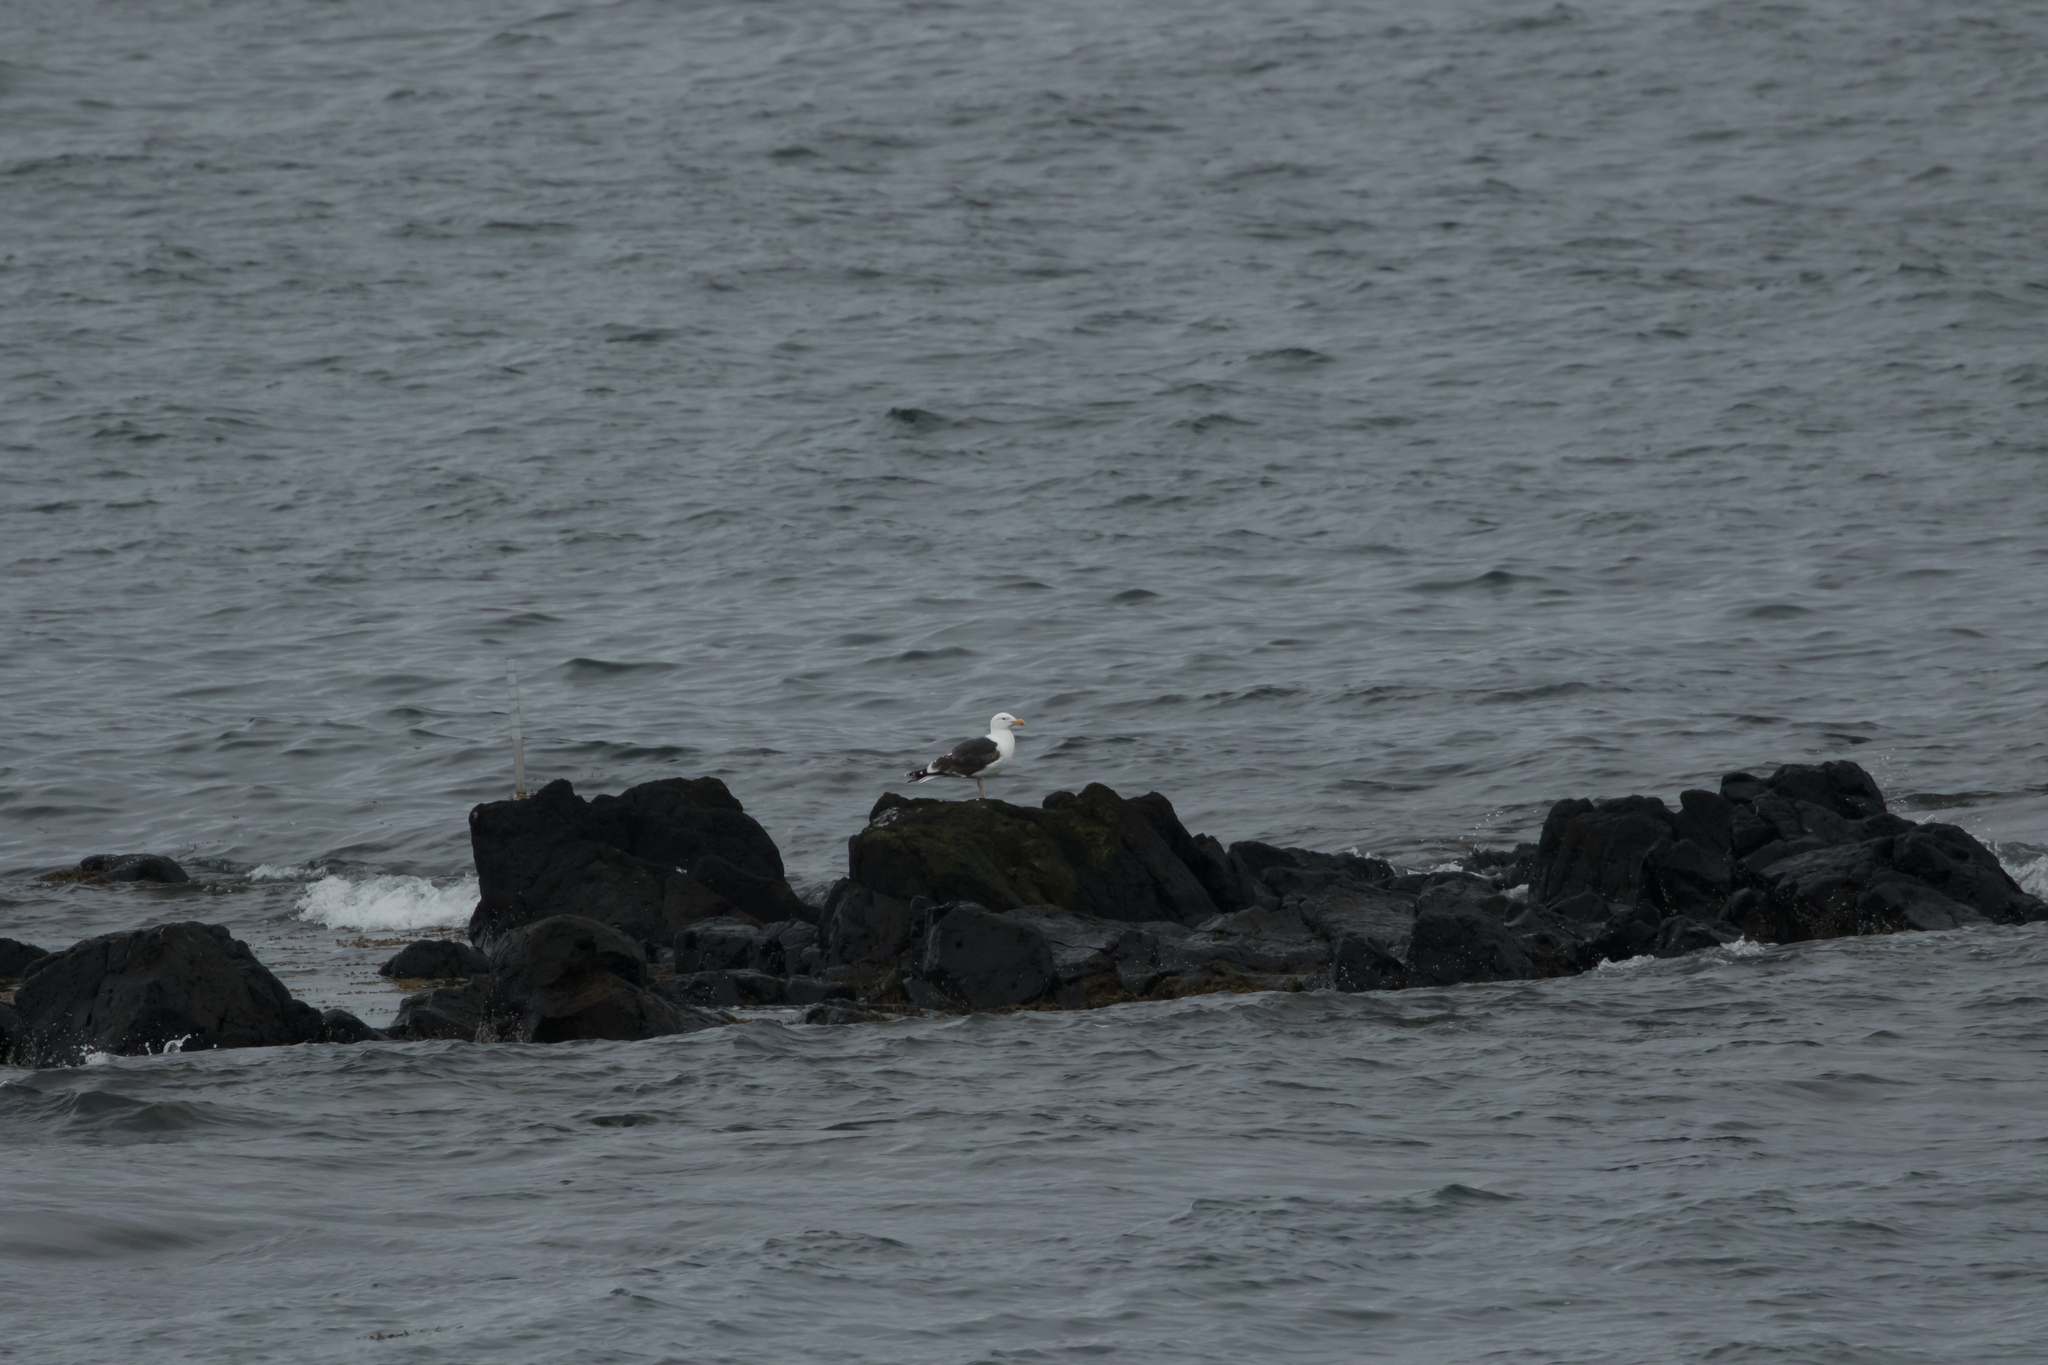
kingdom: Animalia
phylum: Chordata
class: Aves
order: Charadriiformes
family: Laridae
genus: Larus
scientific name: Larus marinus
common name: Great black-backed gull
